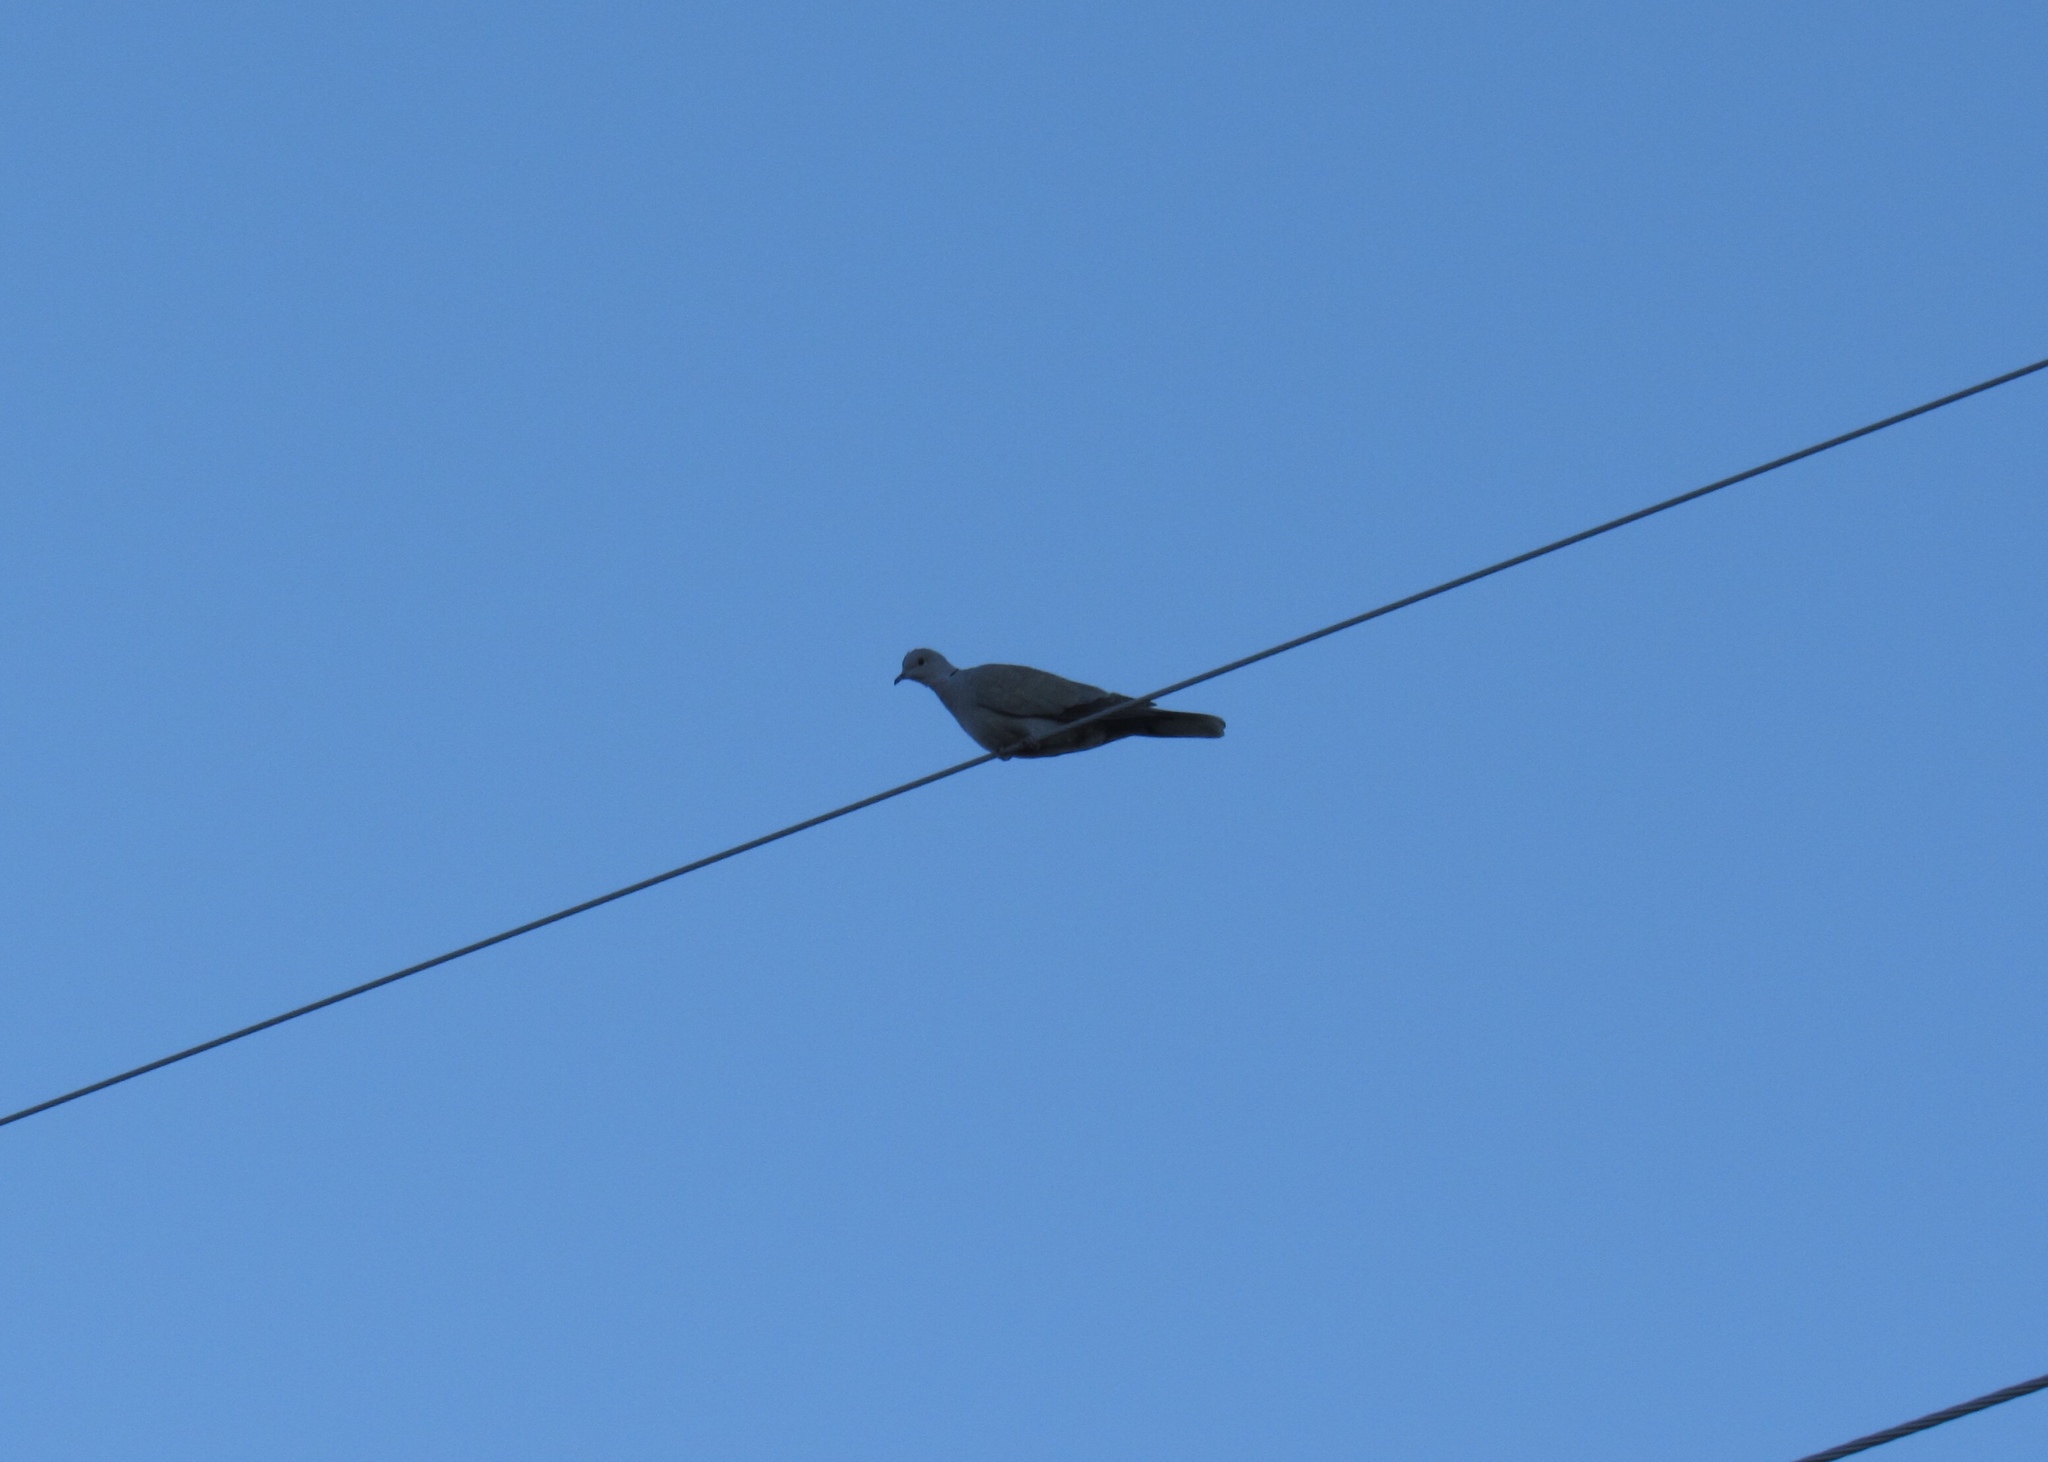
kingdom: Animalia
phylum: Chordata
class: Aves
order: Columbiformes
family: Columbidae
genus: Streptopelia
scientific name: Streptopelia decaocto
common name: Eurasian collared dove
